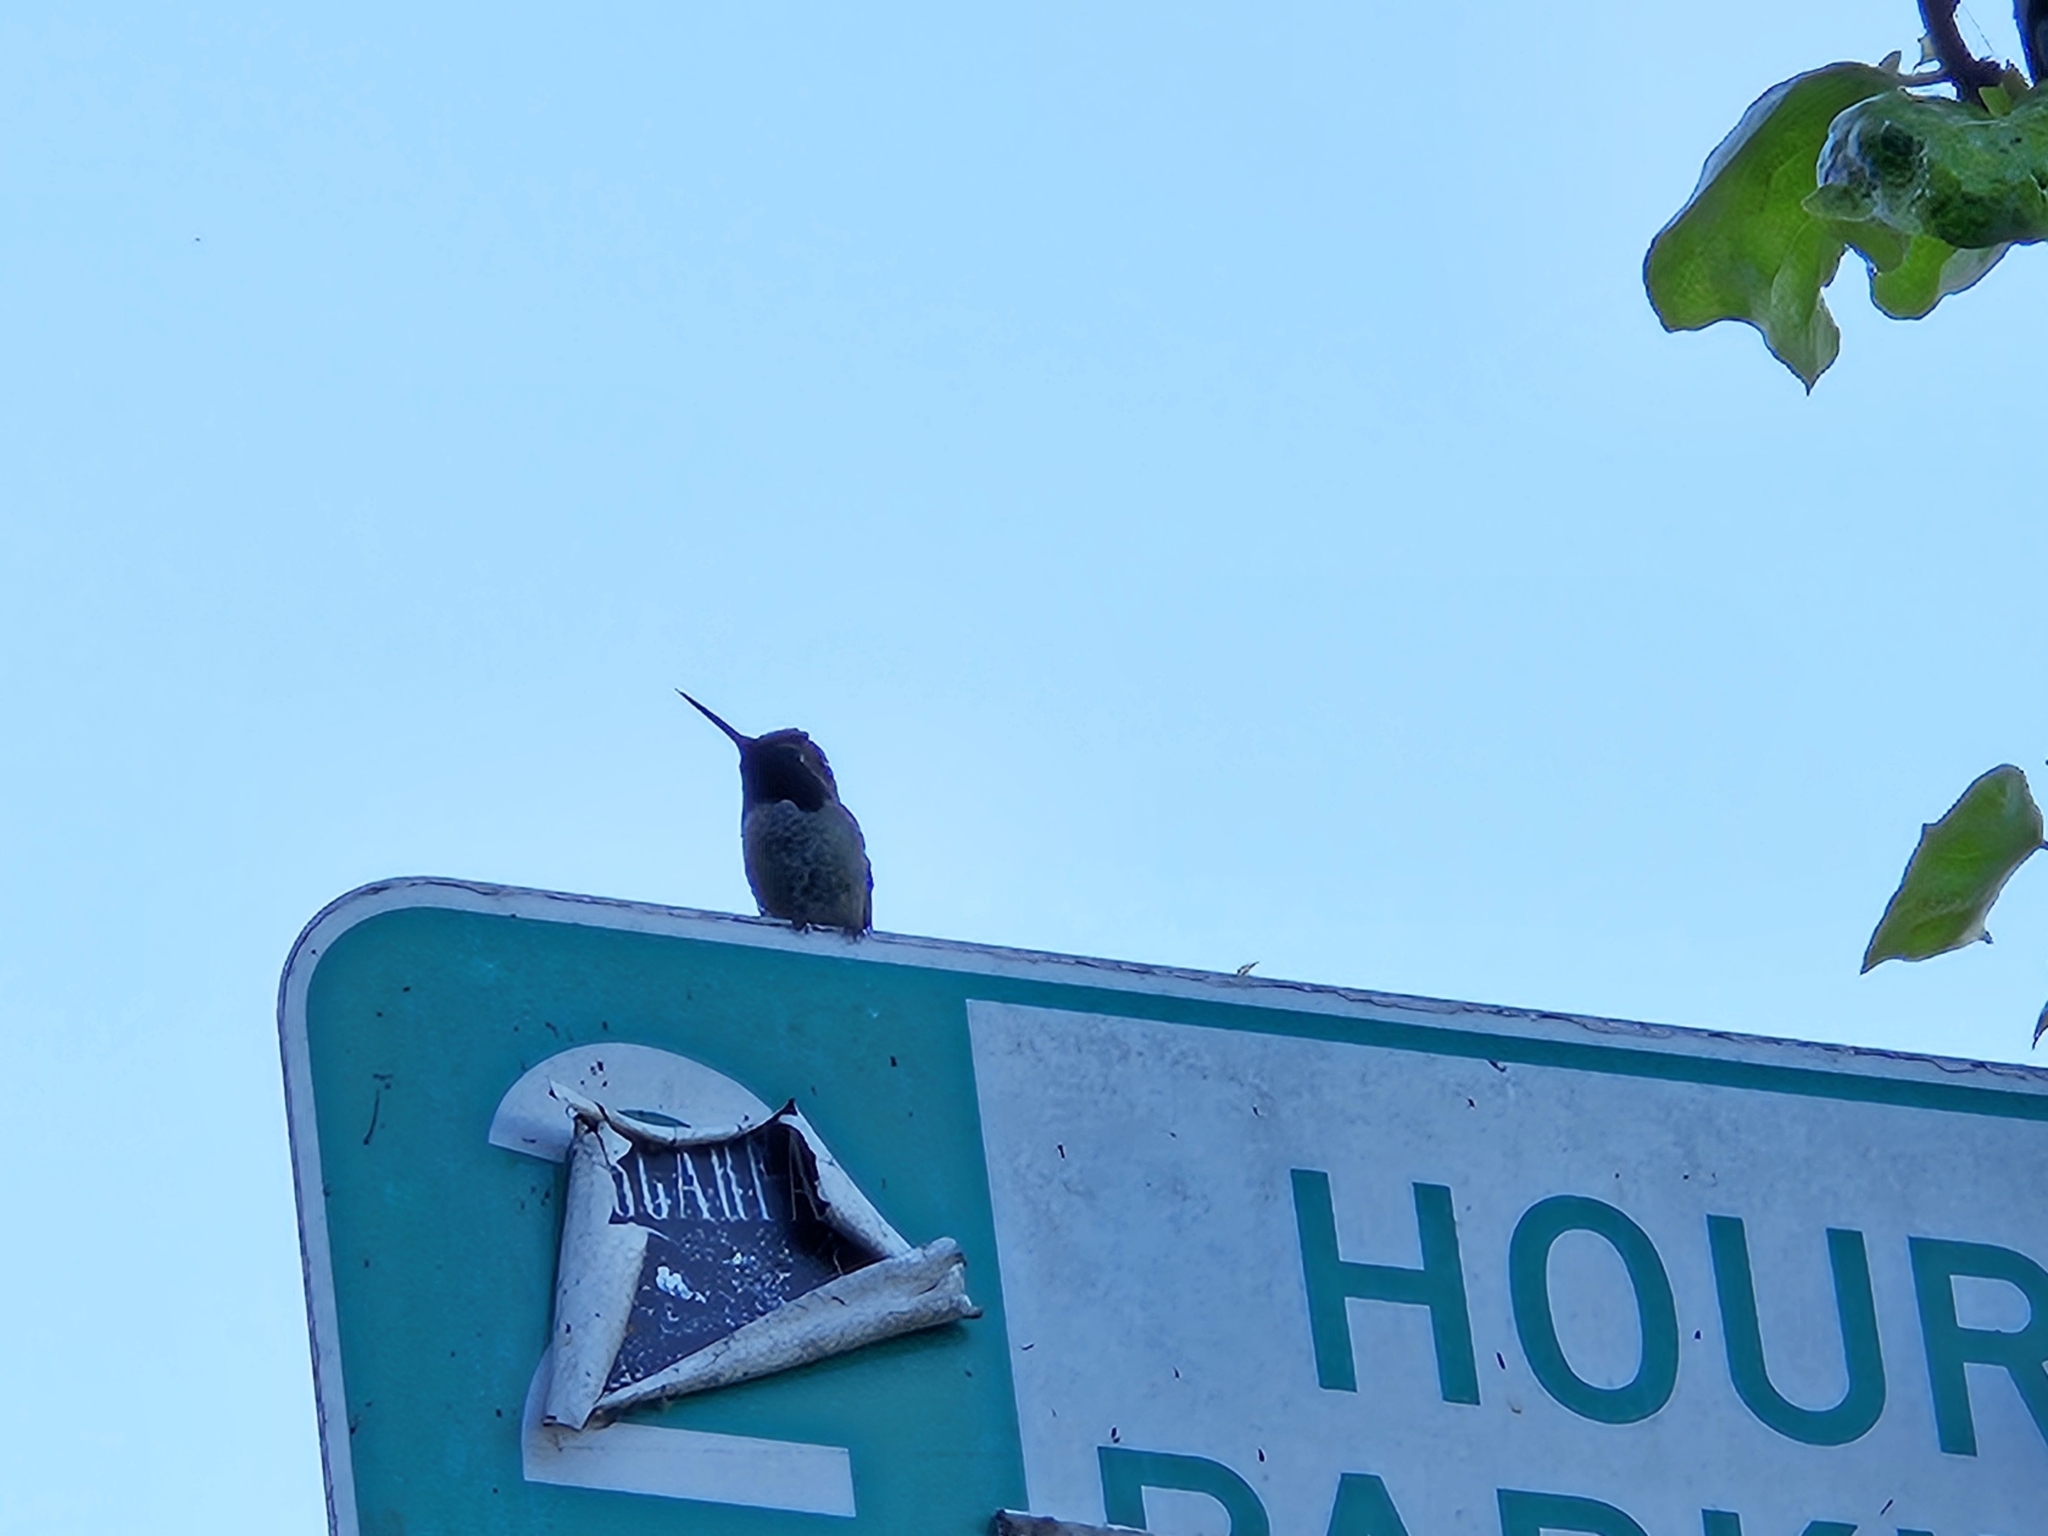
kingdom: Animalia
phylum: Chordata
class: Aves
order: Apodiformes
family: Trochilidae
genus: Calypte
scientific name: Calypte anna
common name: Anna's hummingbird
